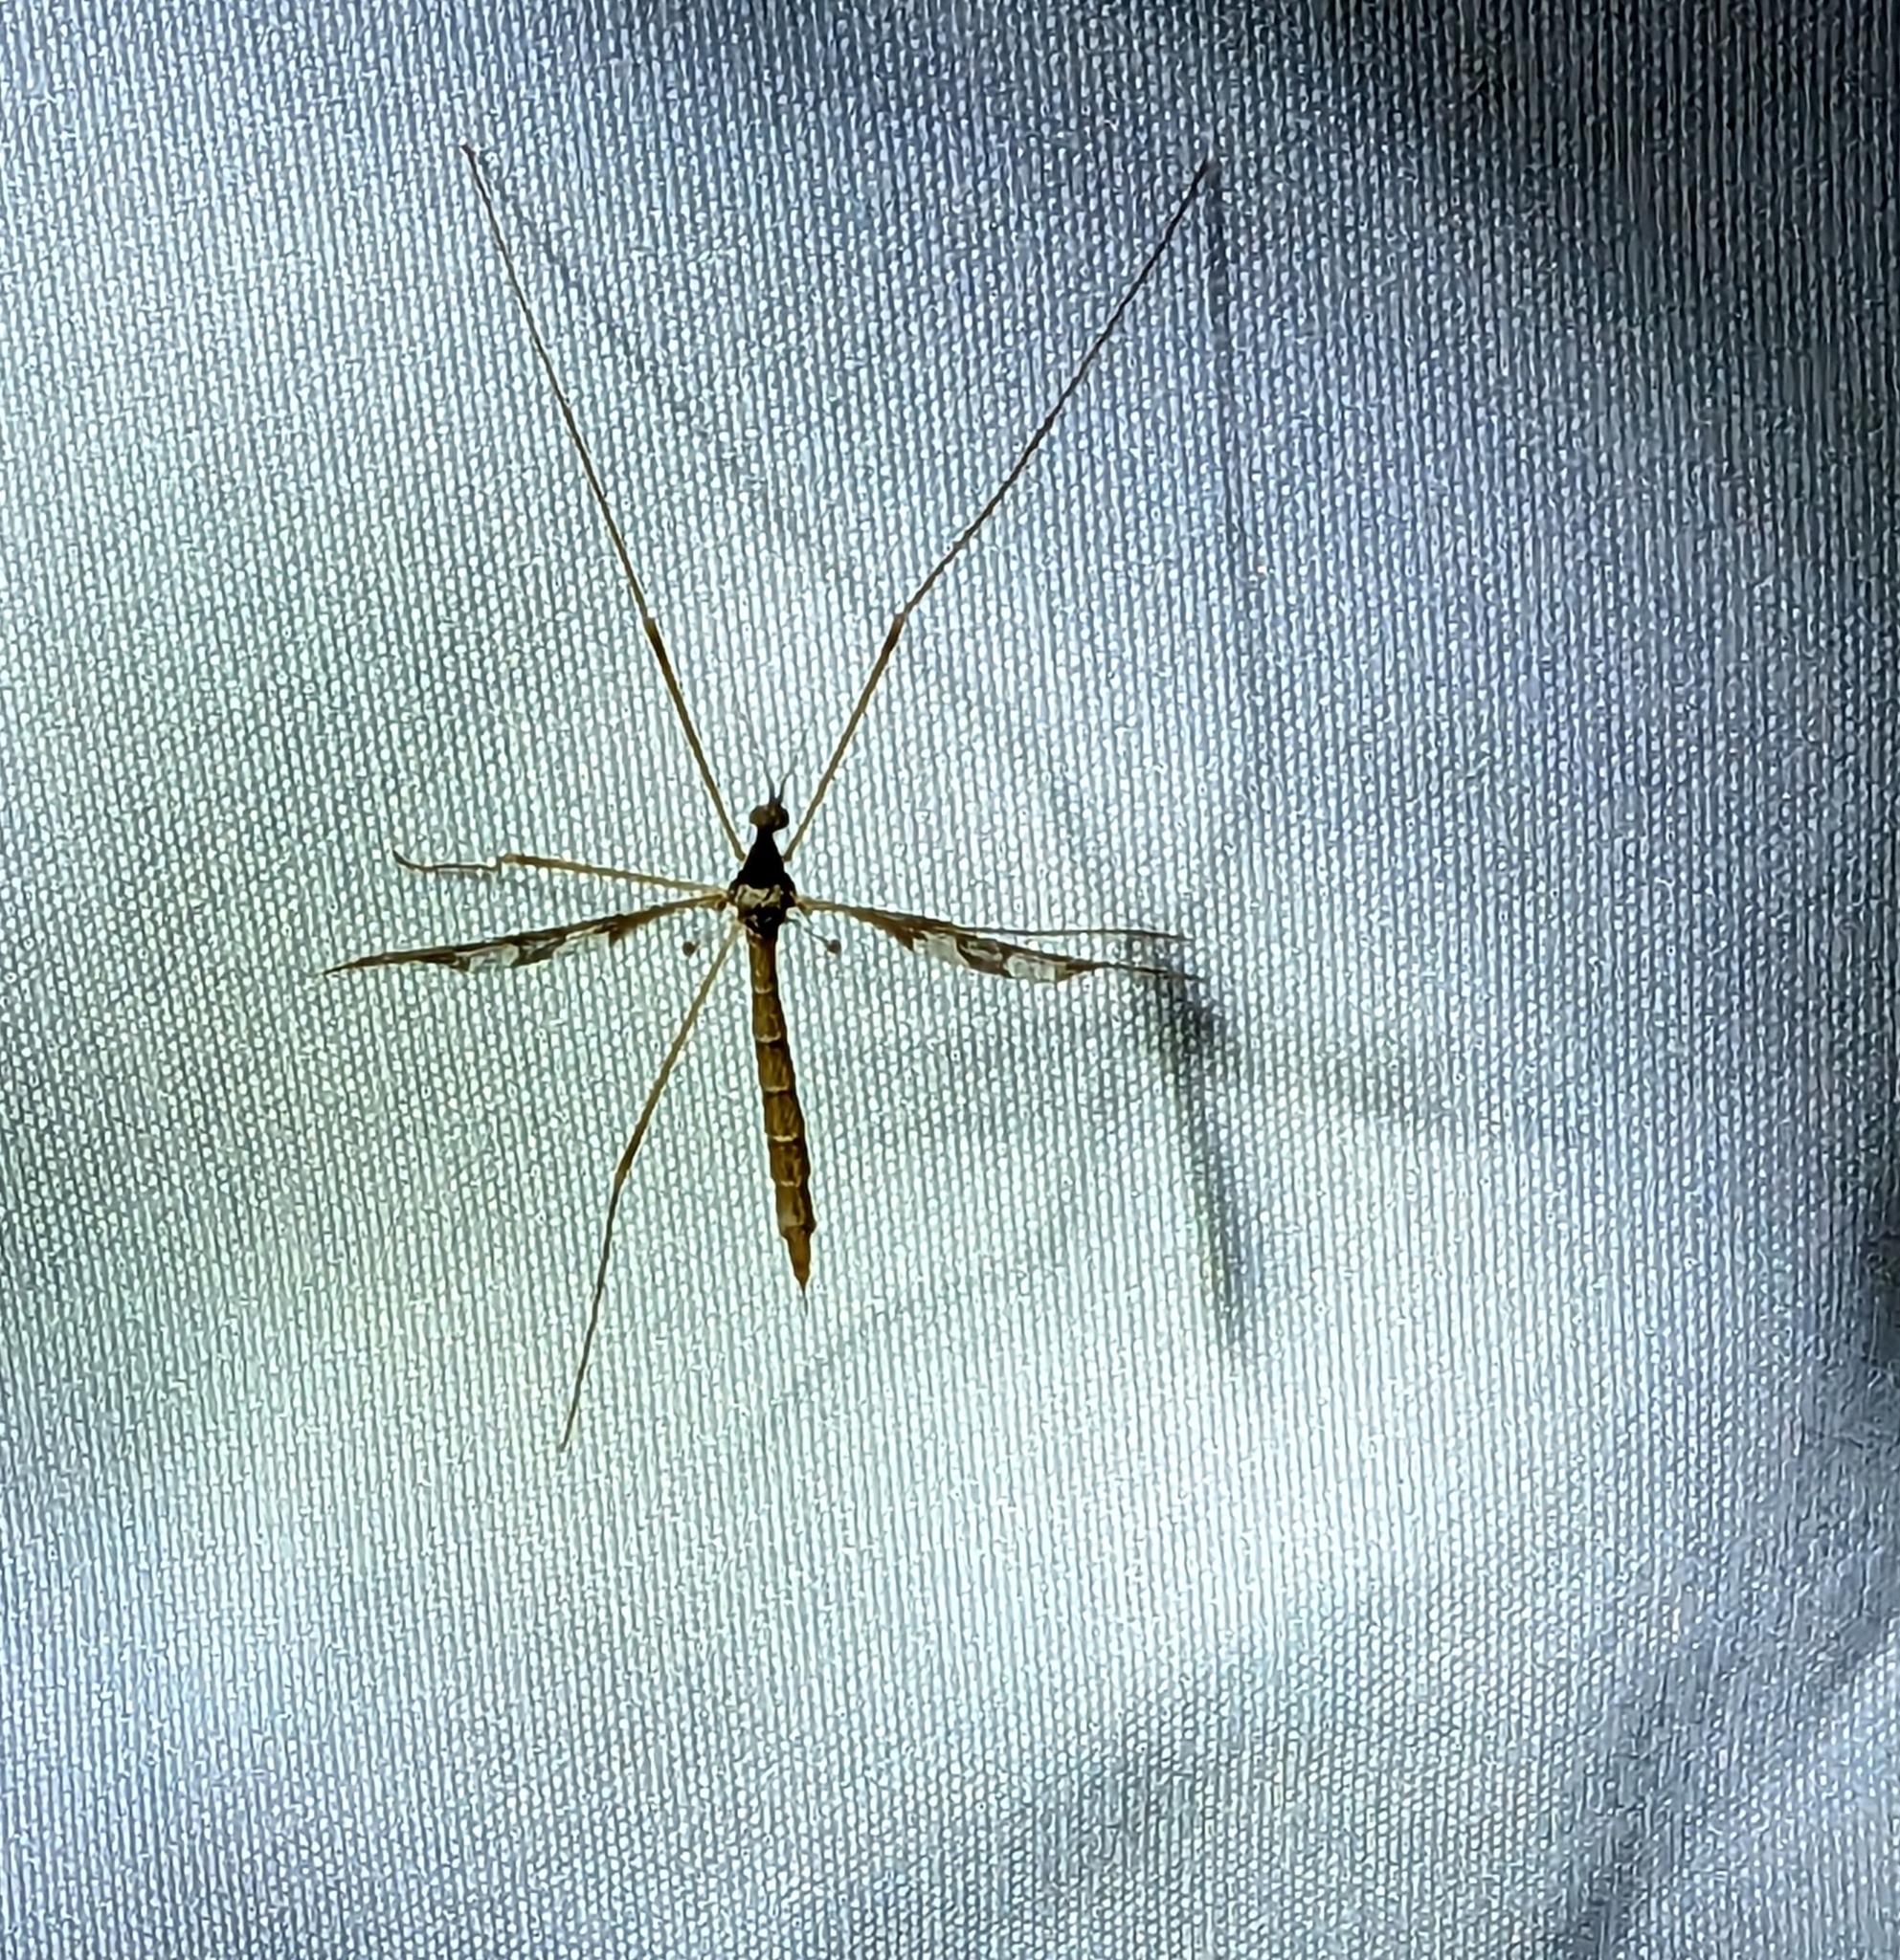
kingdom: Animalia
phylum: Arthropoda
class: Insecta
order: Diptera
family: Limoniidae
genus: Epiphragma
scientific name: Epiphragma solatrix
